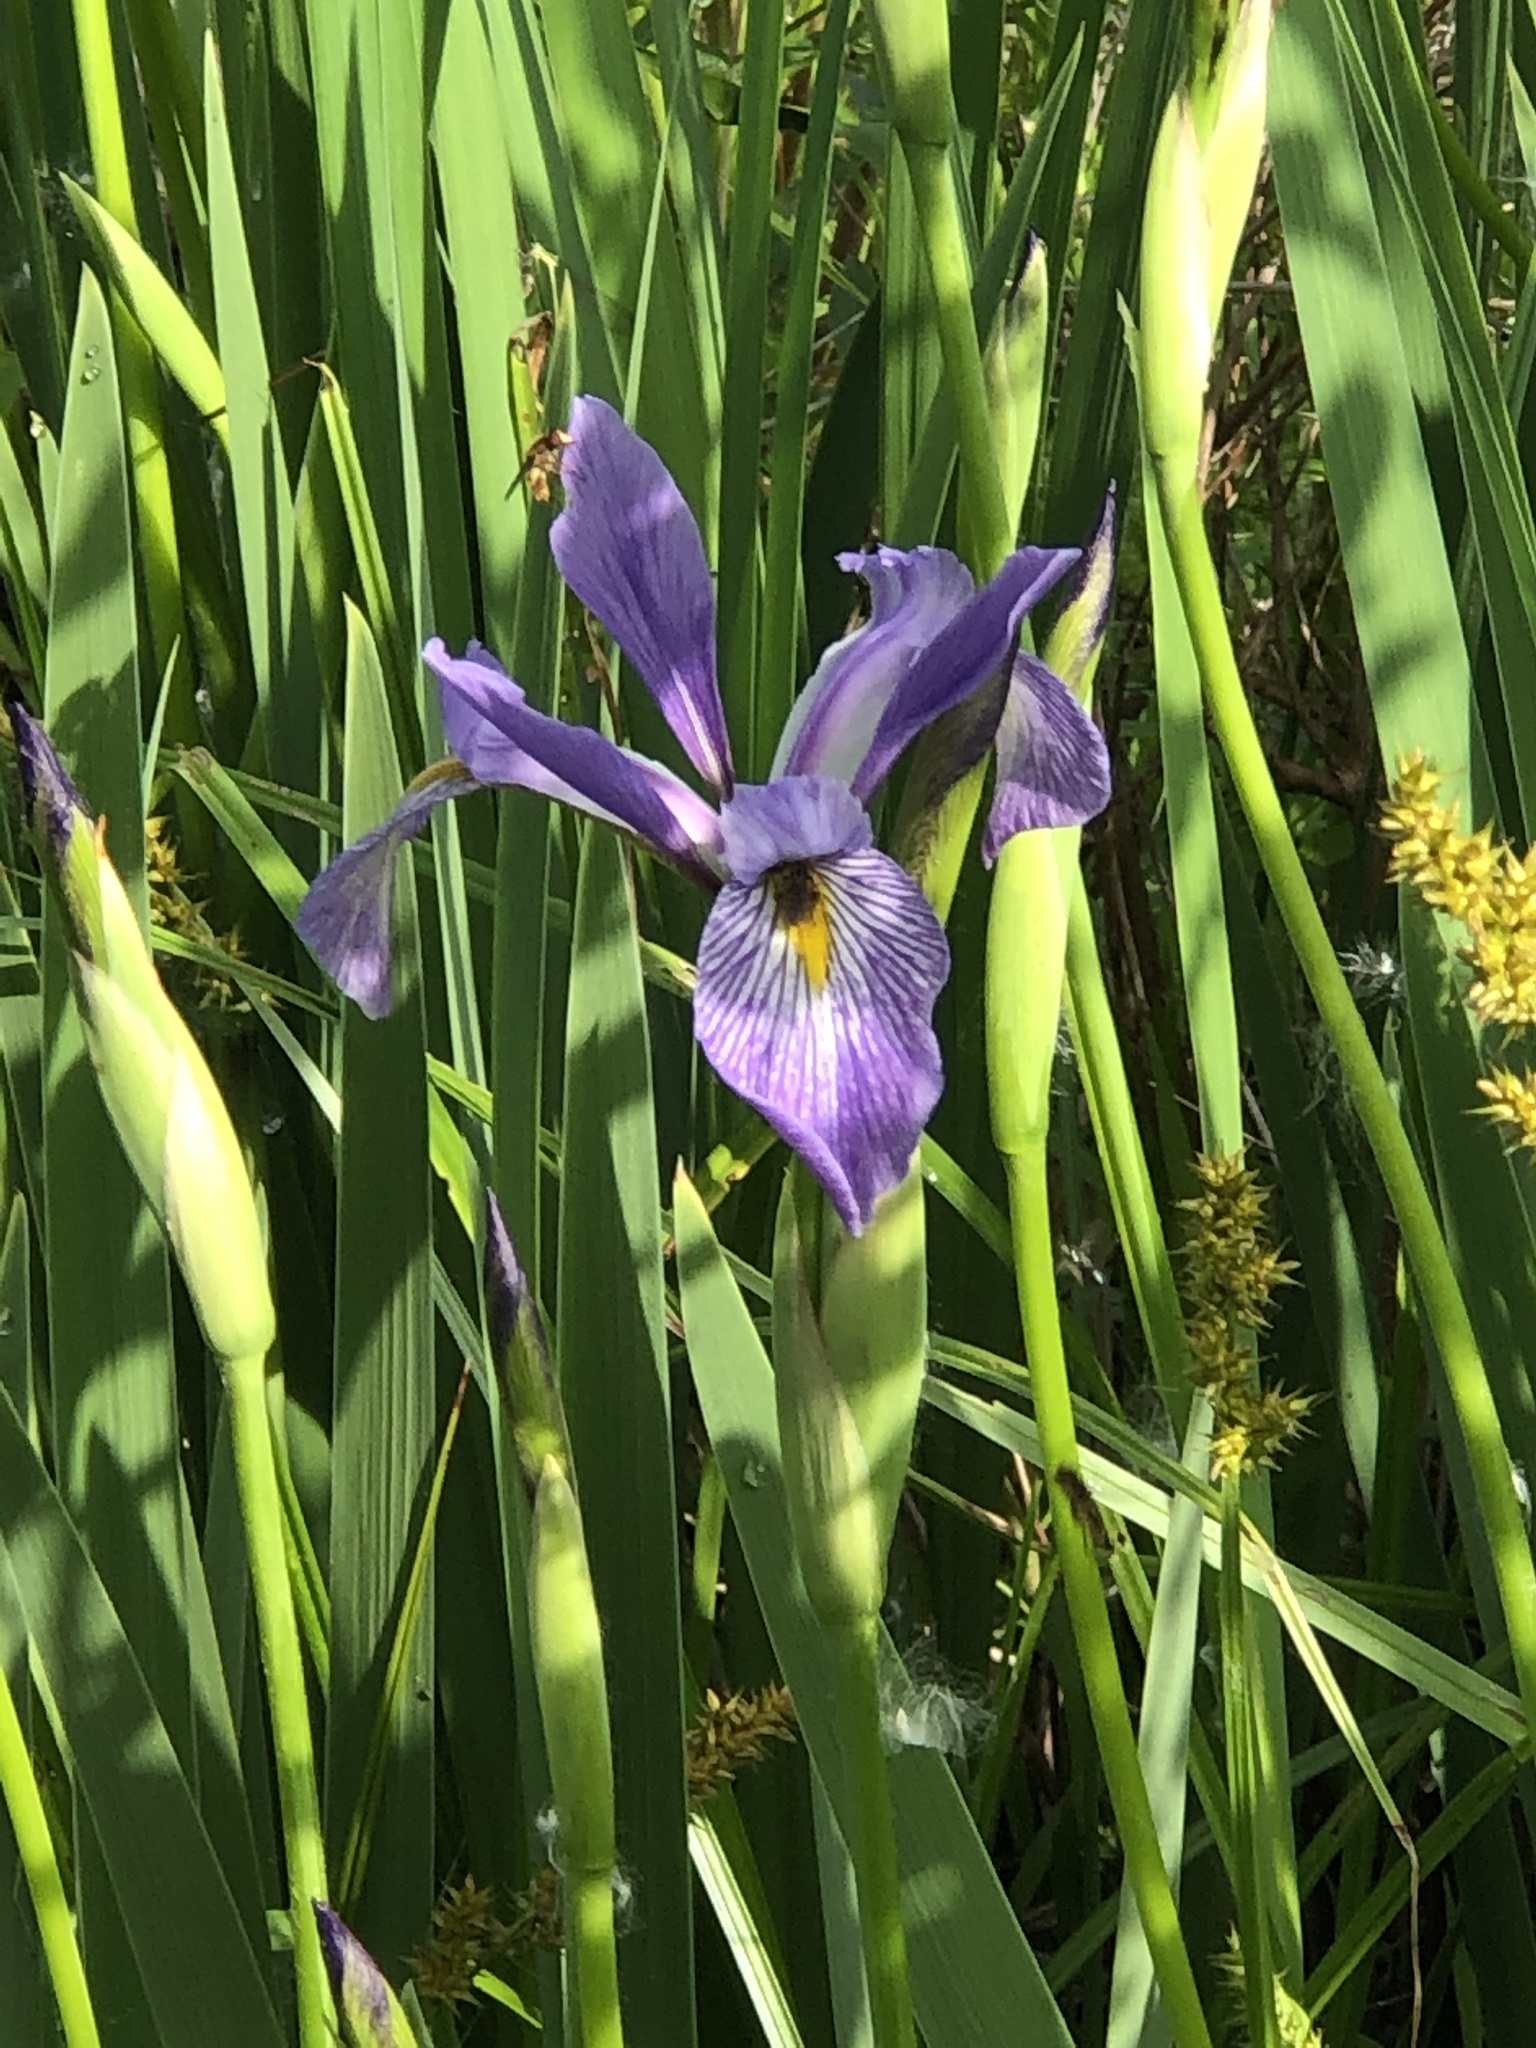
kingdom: Plantae
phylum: Tracheophyta
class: Liliopsida
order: Asparagales
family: Iridaceae
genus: Iris
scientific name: Iris virginica
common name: Southern blue flag
